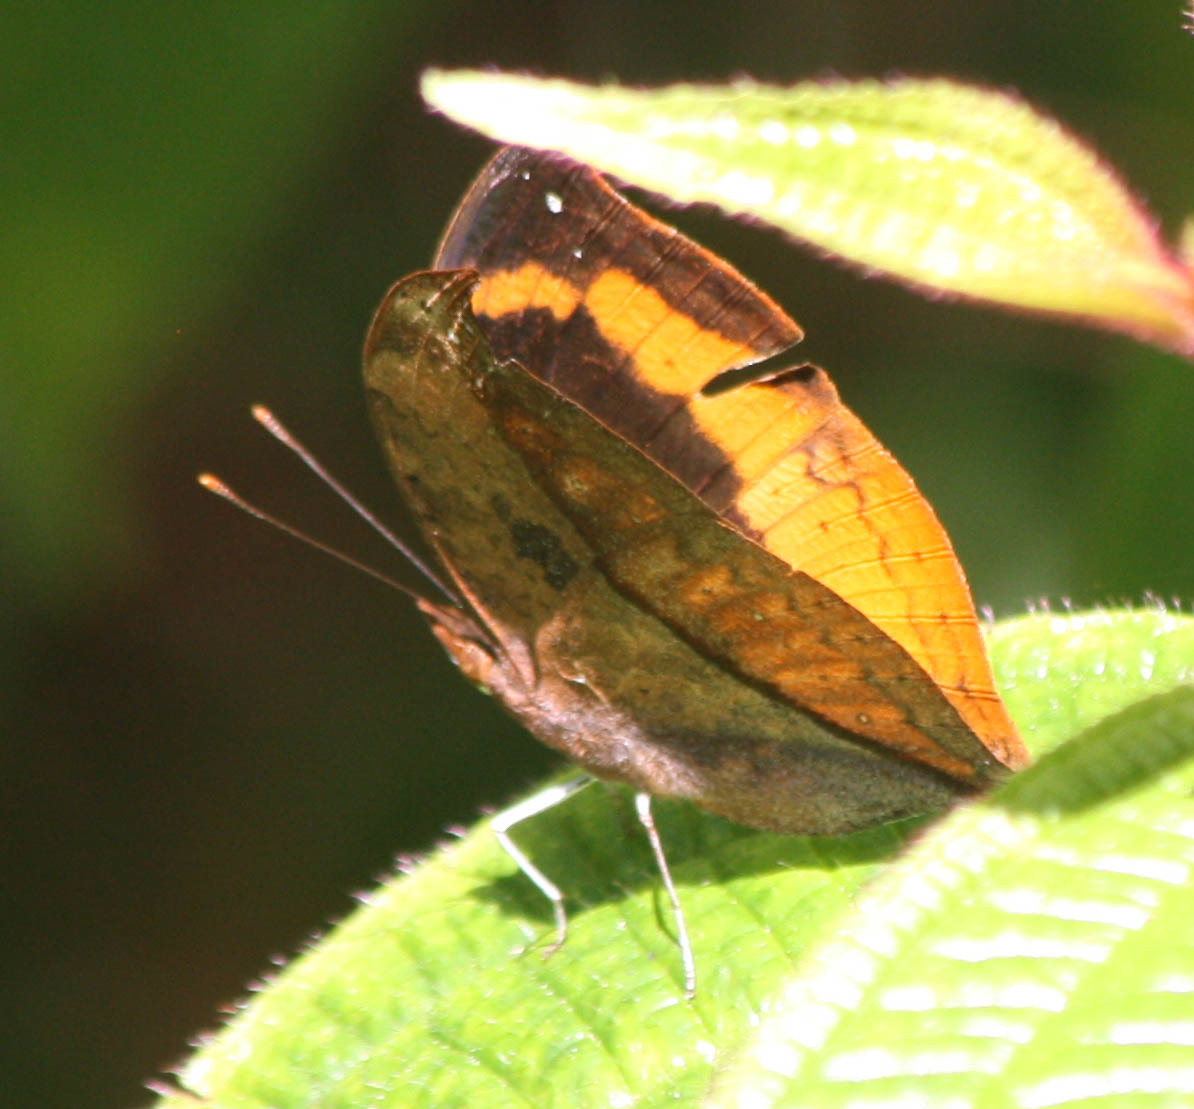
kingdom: Animalia
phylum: Arthropoda
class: Insecta
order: Lepidoptera
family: Nymphalidae
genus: Precis
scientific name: Precis eurodoce
